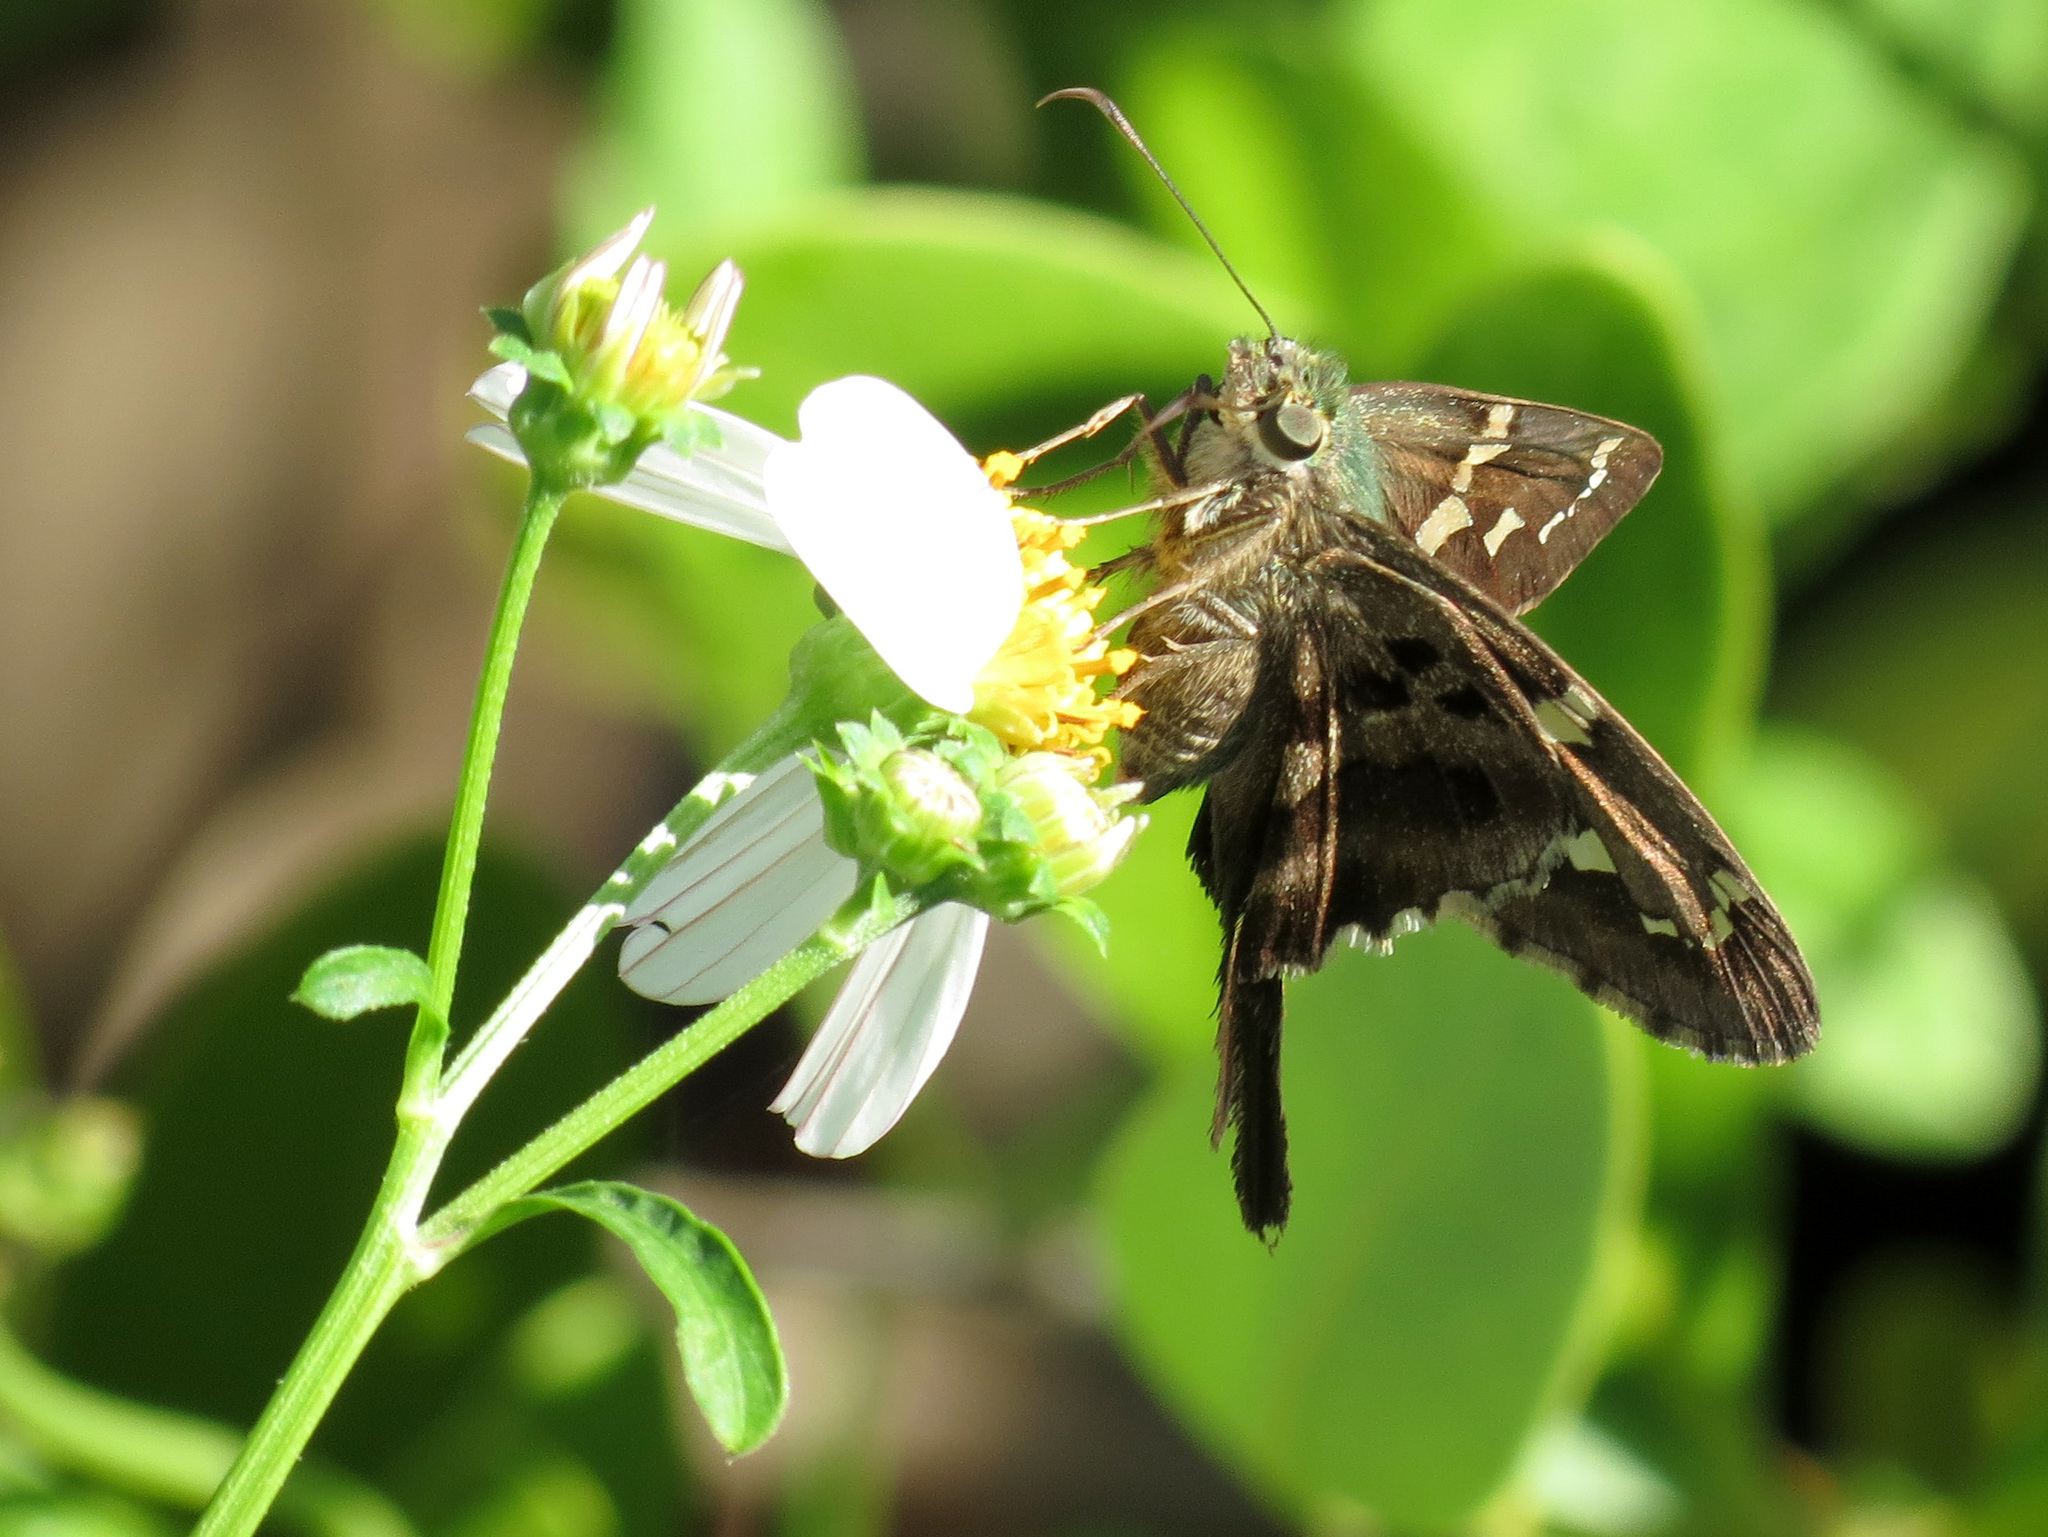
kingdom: Animalia
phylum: Arthropoda
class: Insecta
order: Lepidoptera
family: Hesperiidae
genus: Urbanus
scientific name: Urbanus proteus
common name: Long-tailed skipper
